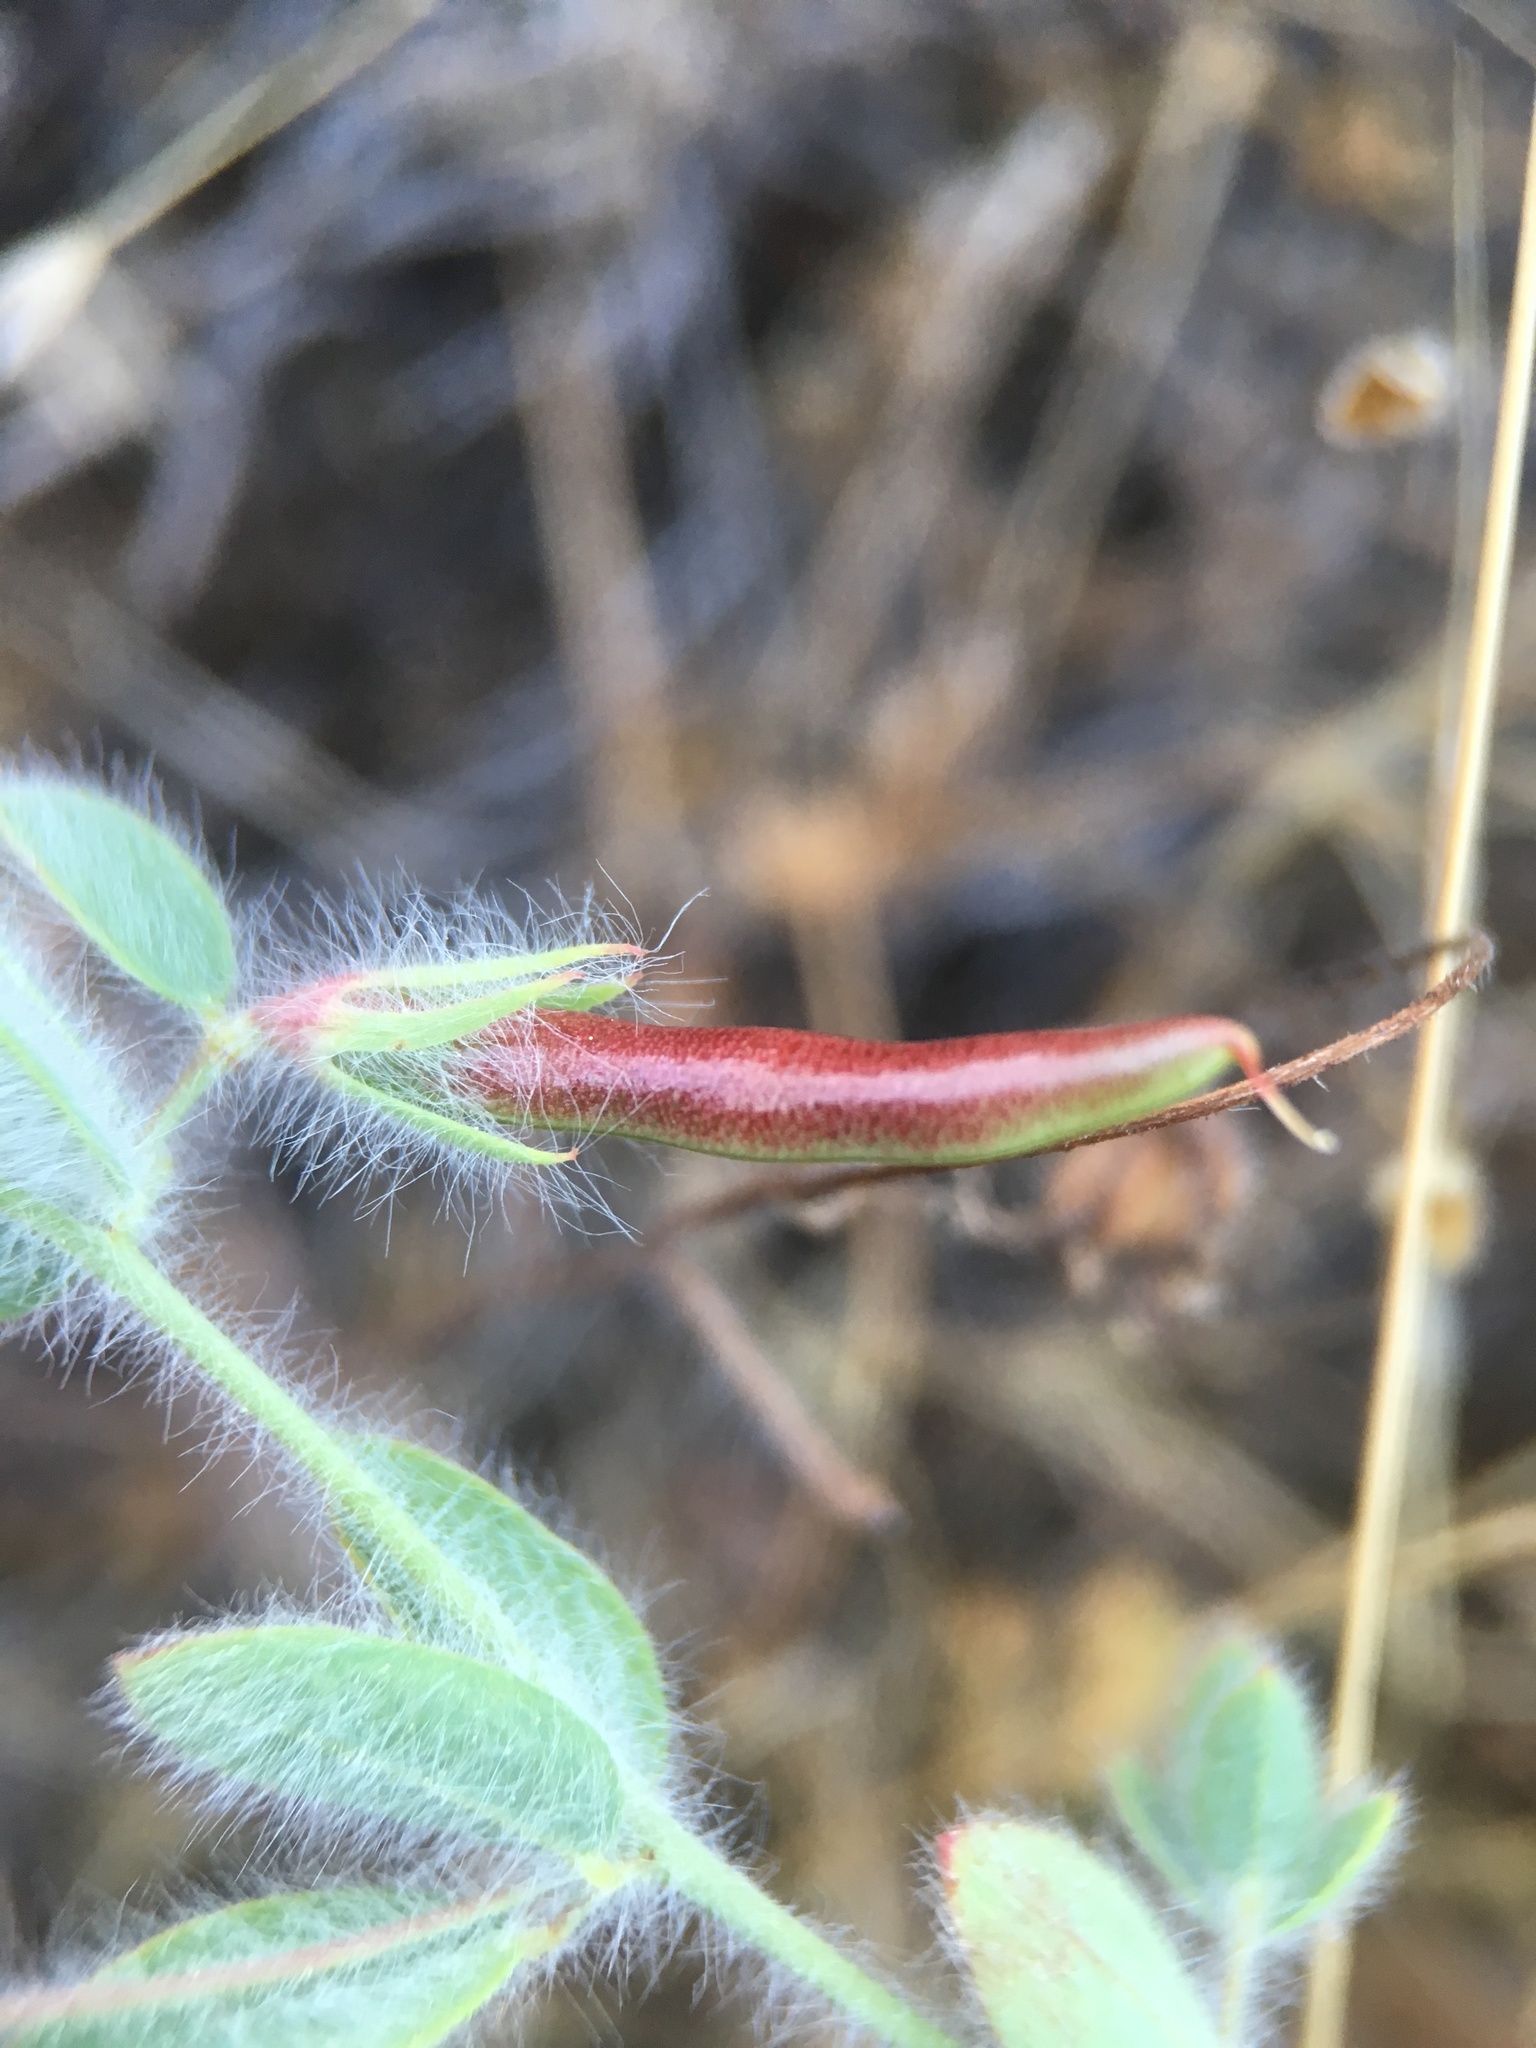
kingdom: Plantae
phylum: Tracheophyta
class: Magnoliopsida
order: Fabales
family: Fabaceae
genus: Acmispon
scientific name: Acmispon americanus
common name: American bird's-foot trefoil
